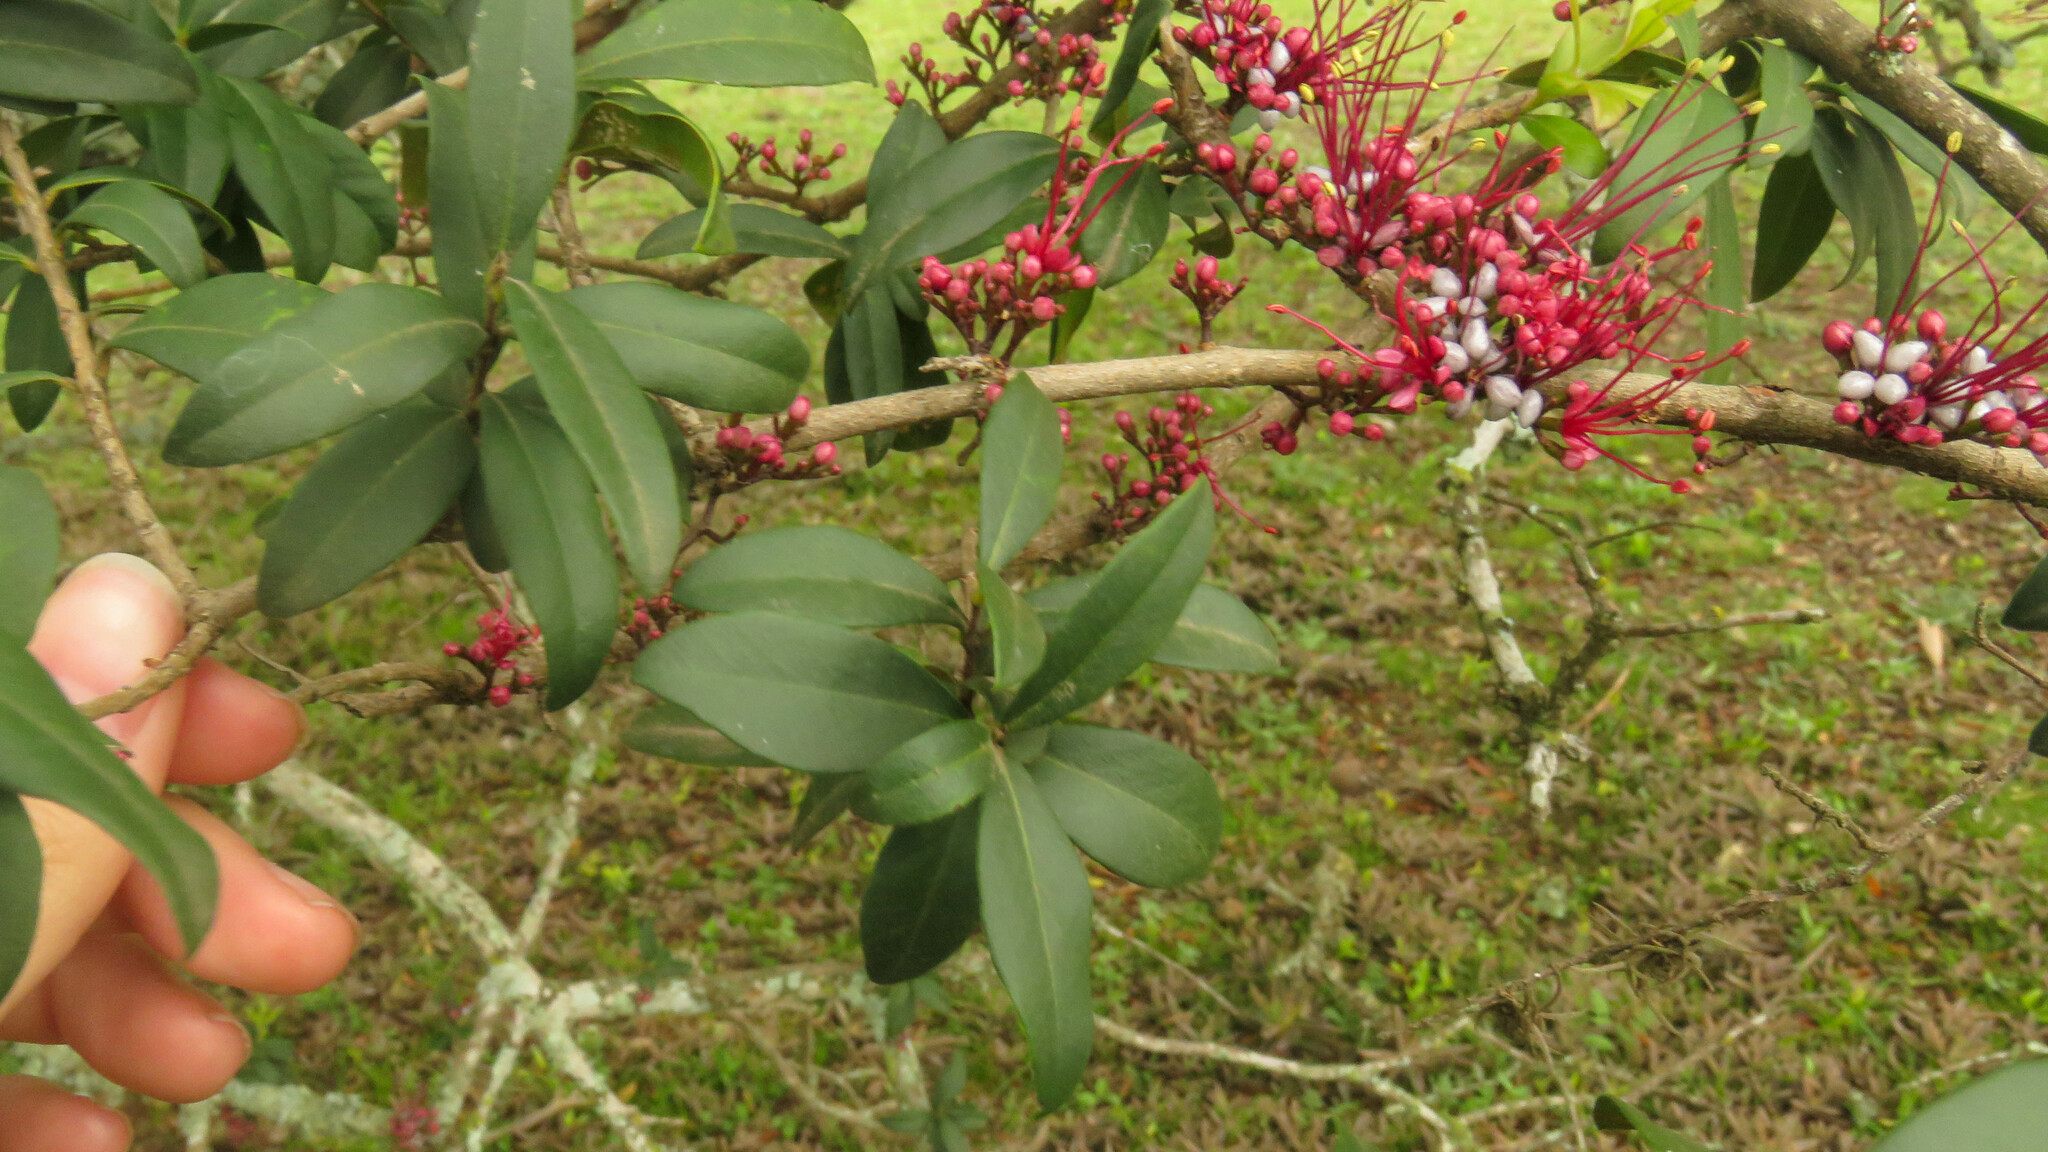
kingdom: Plantae
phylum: Tracheophyta
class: Magnoliopsida
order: Myrtales
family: Myrtaceae
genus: Myrrhinium
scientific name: Myrrhinium atropurpureum
